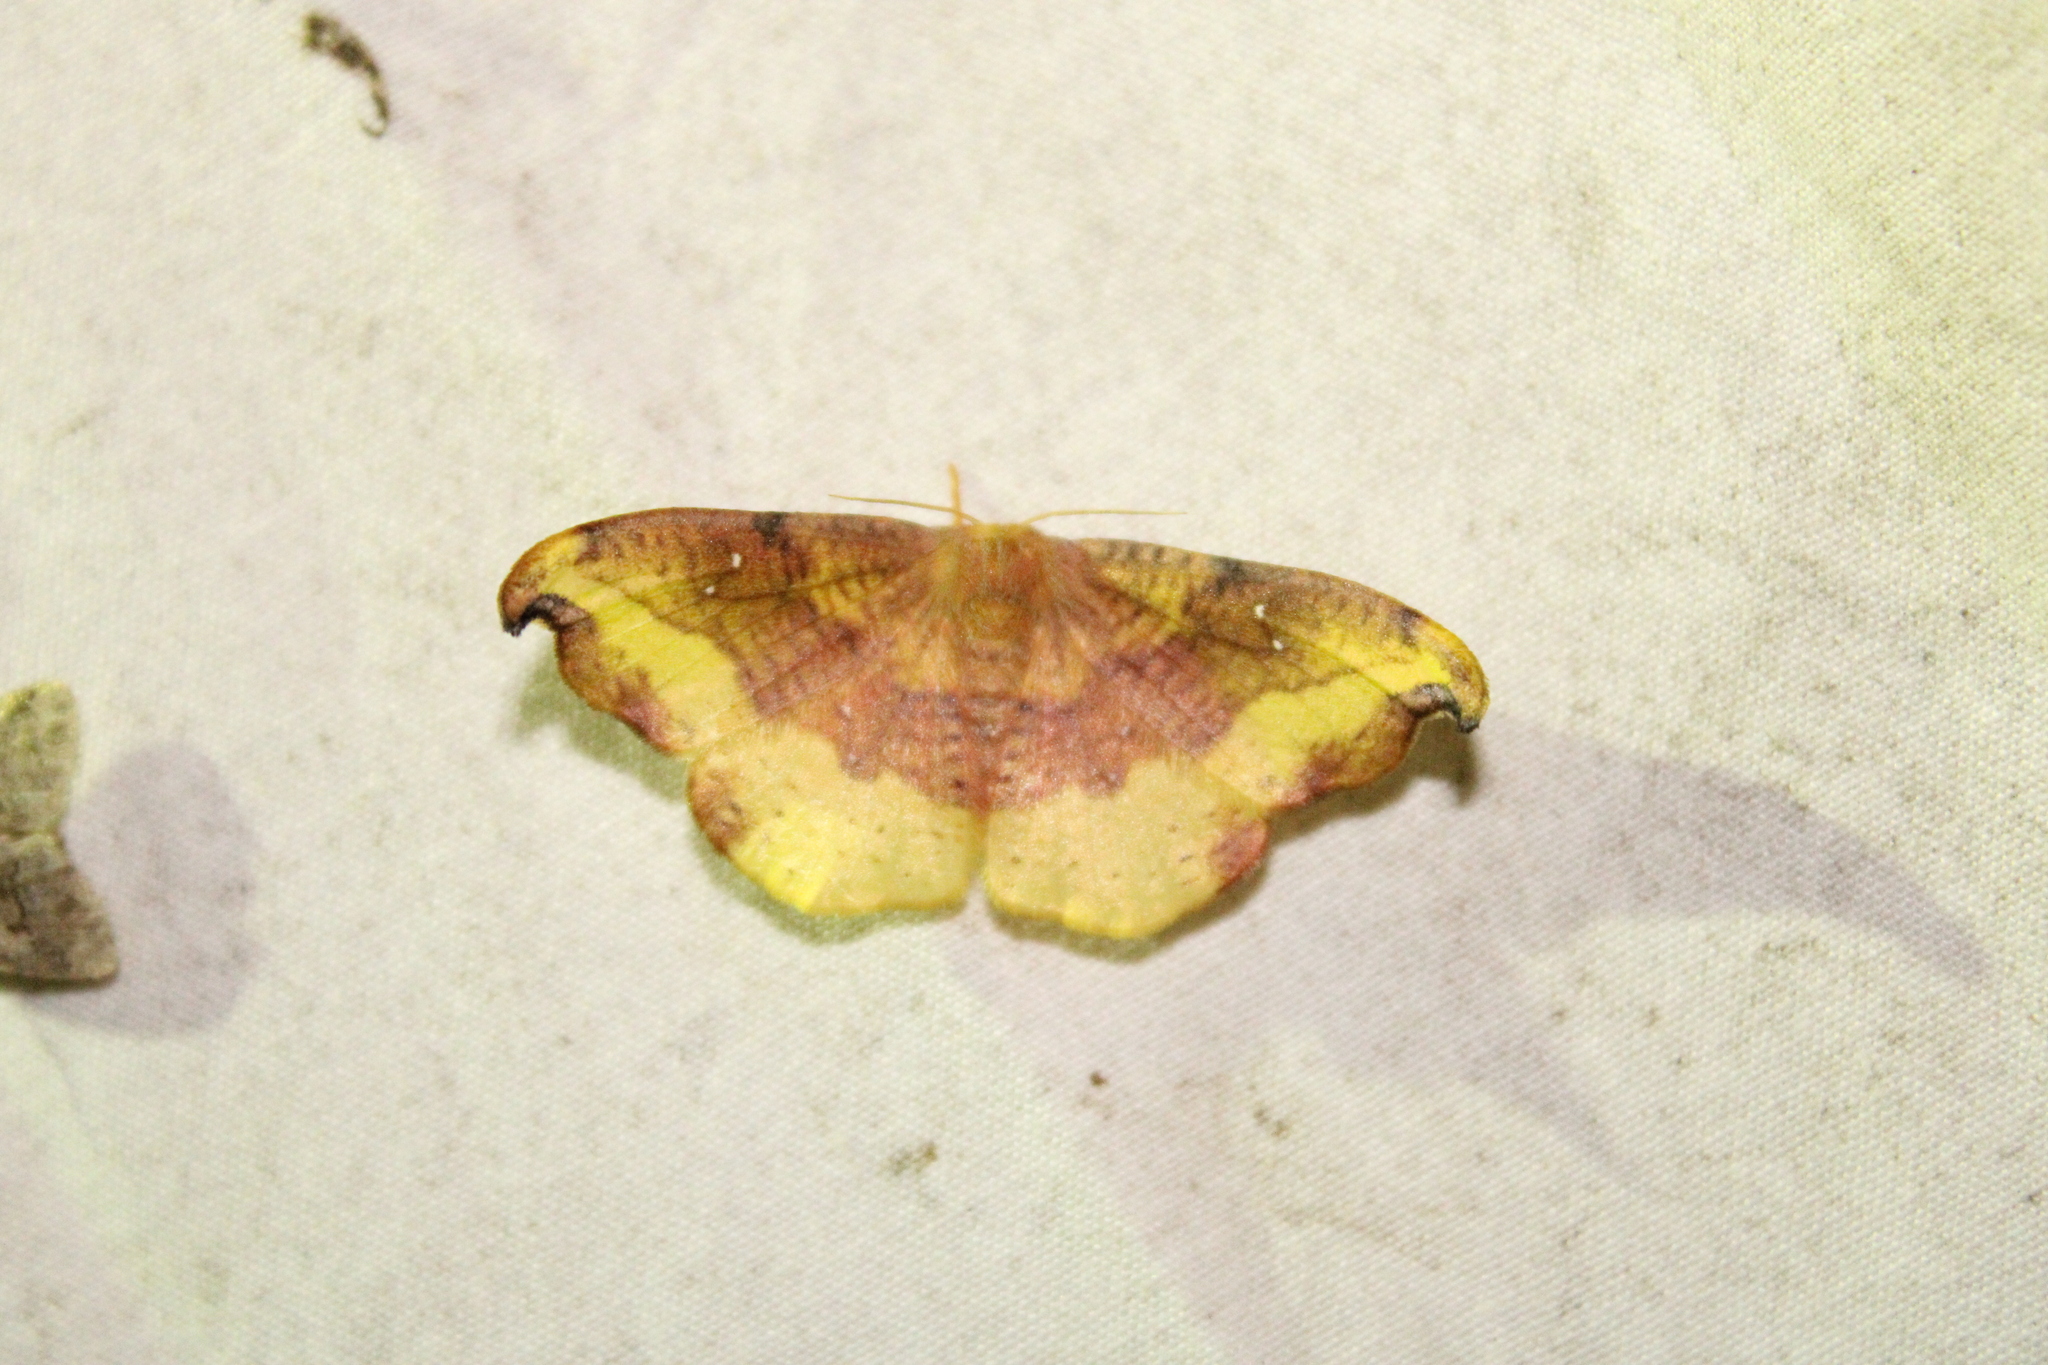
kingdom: Animalia
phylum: Arthropoda
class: Insecta
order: Lepidoptera
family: Drepanidae
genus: Oreta
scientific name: Oreta rosea
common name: Rose hooktip
